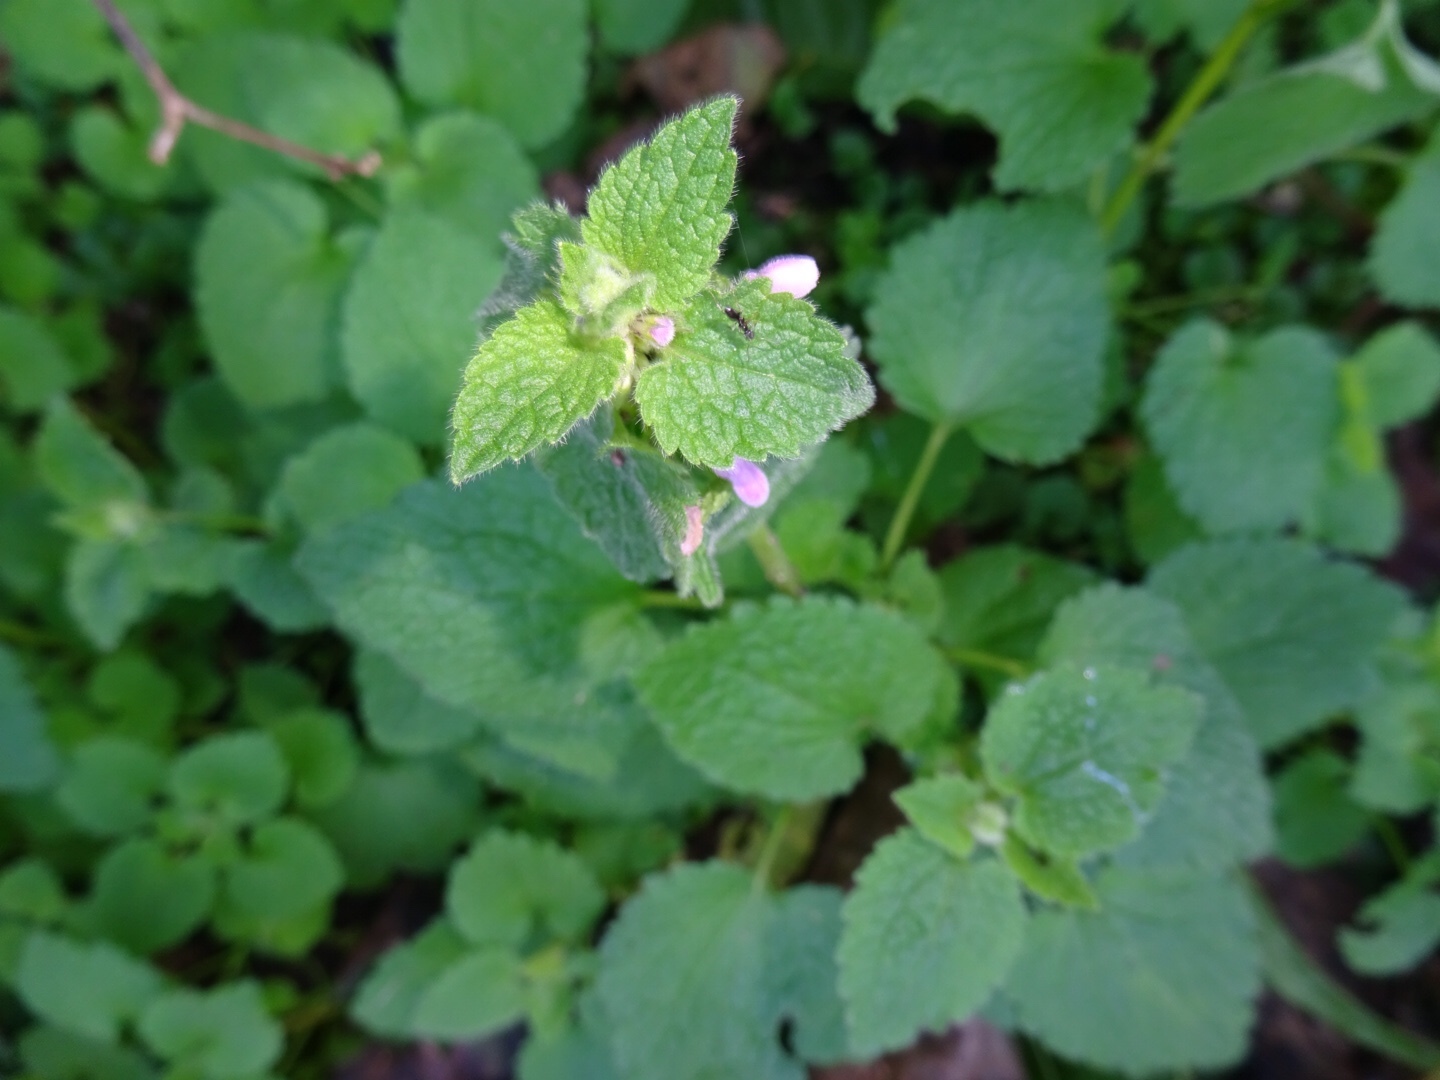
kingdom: Plantae
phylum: Tracheophyta
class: Magnoliopsida
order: Lamiales
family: Lamiaceae
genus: Lamium
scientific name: Lamium purpureum
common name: Red dead-nettle
